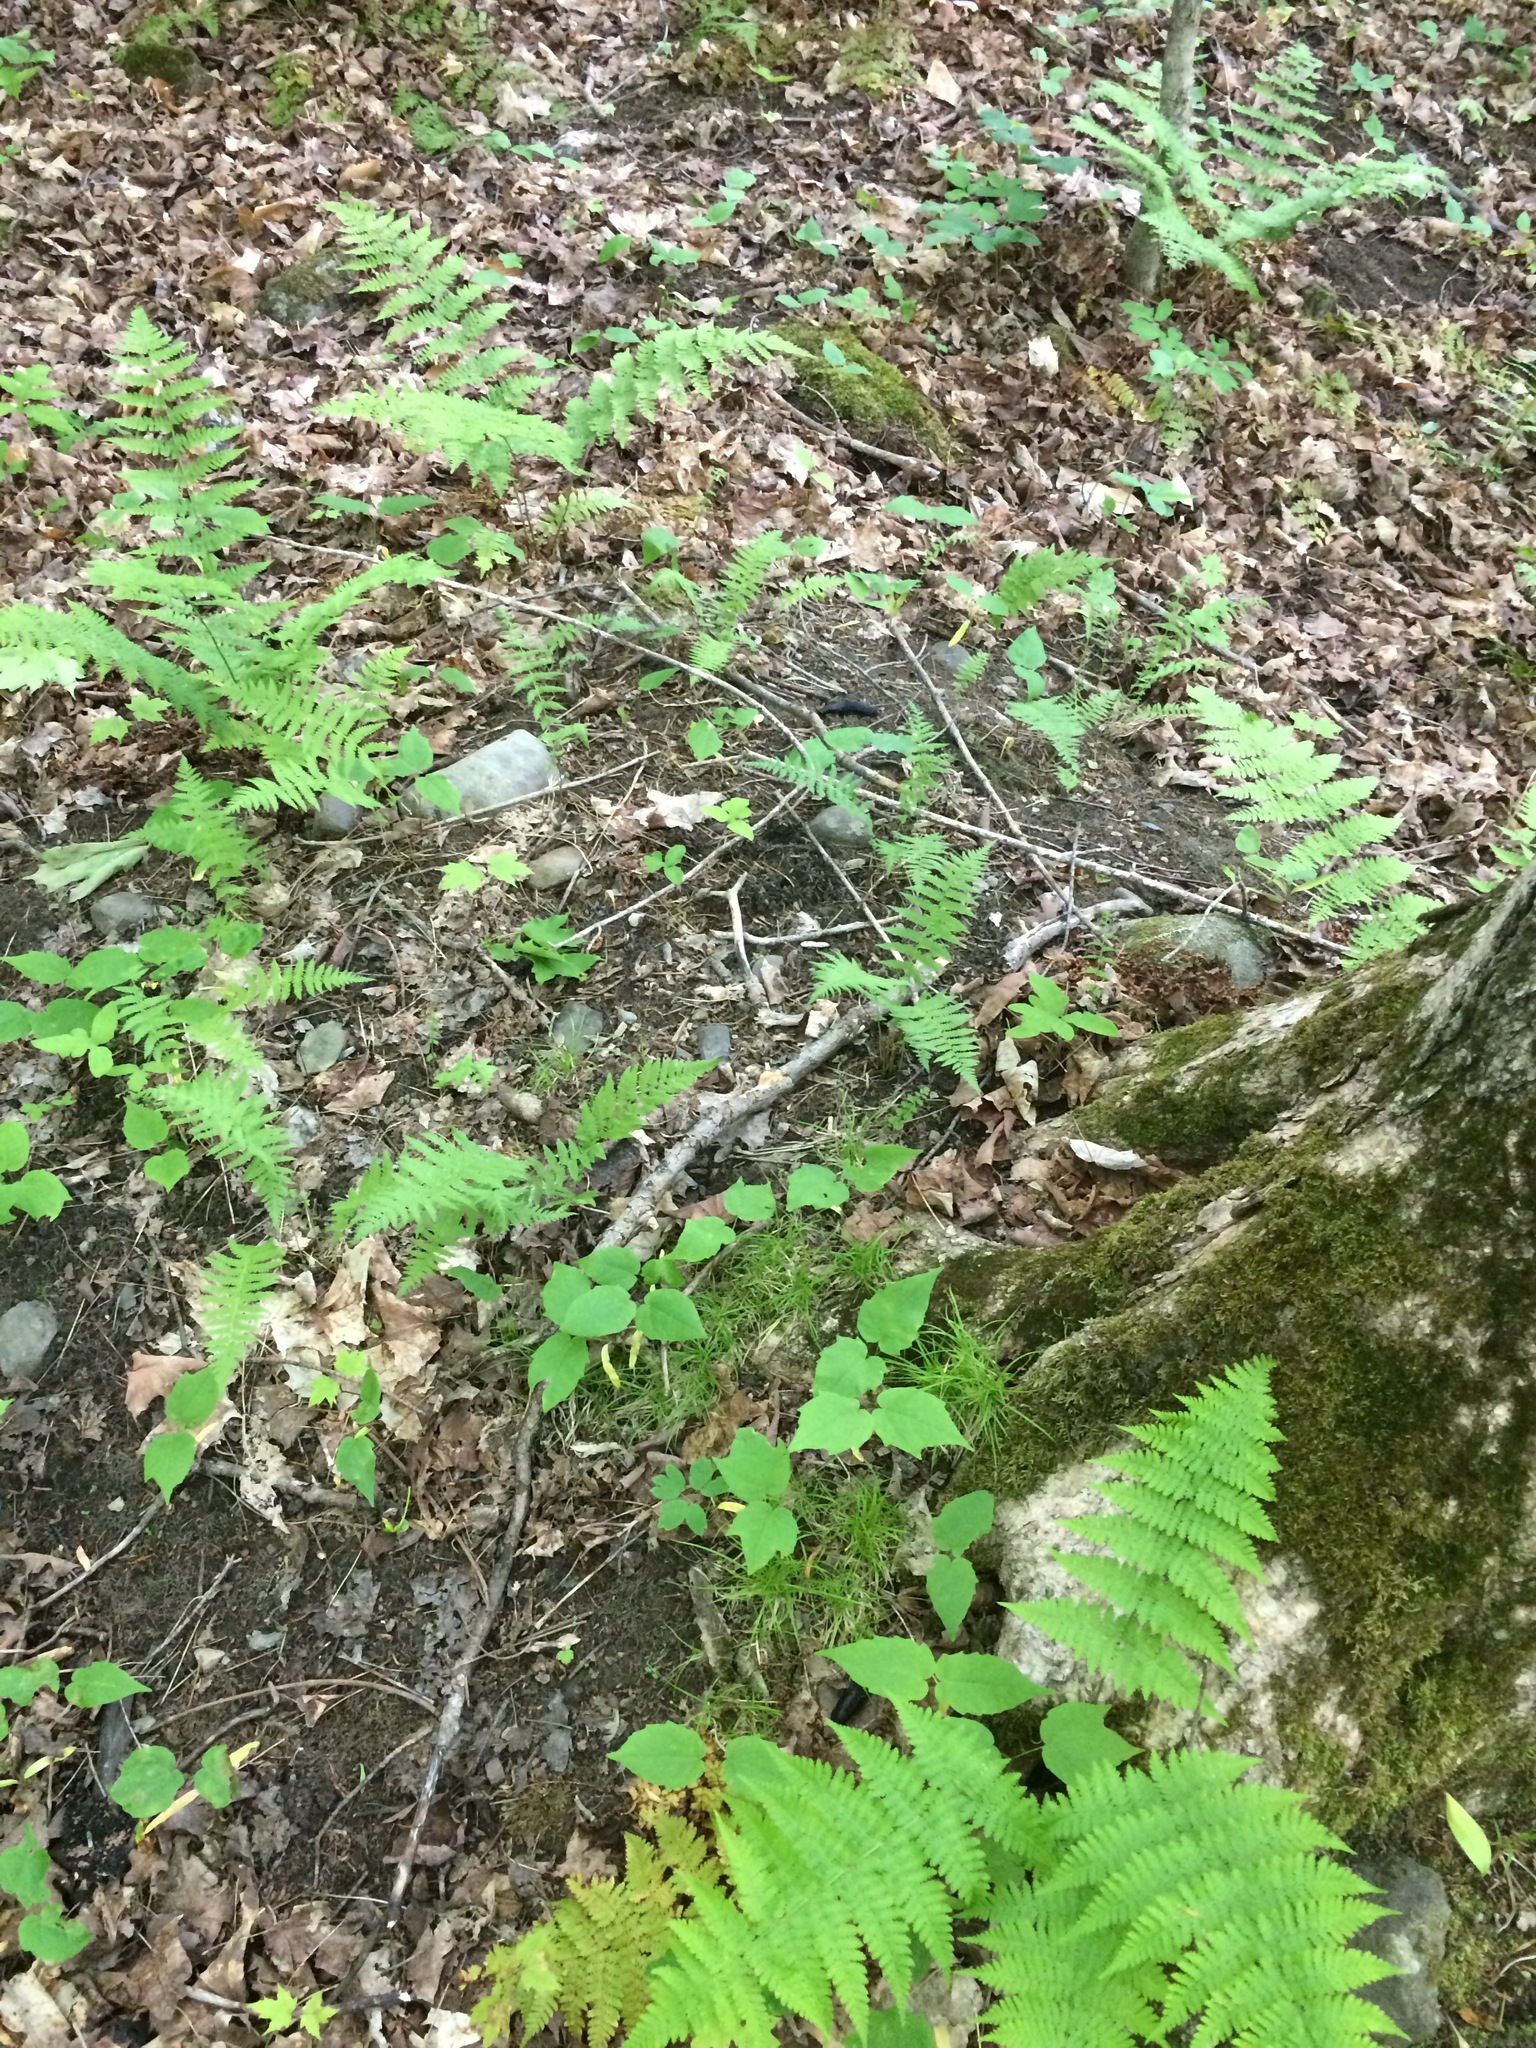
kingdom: Plantae
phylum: Tracheophyta
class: Liliopsida
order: Poales
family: Cyperaceae
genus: Carex
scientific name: Carex disperma
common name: Short-leaved sedge
